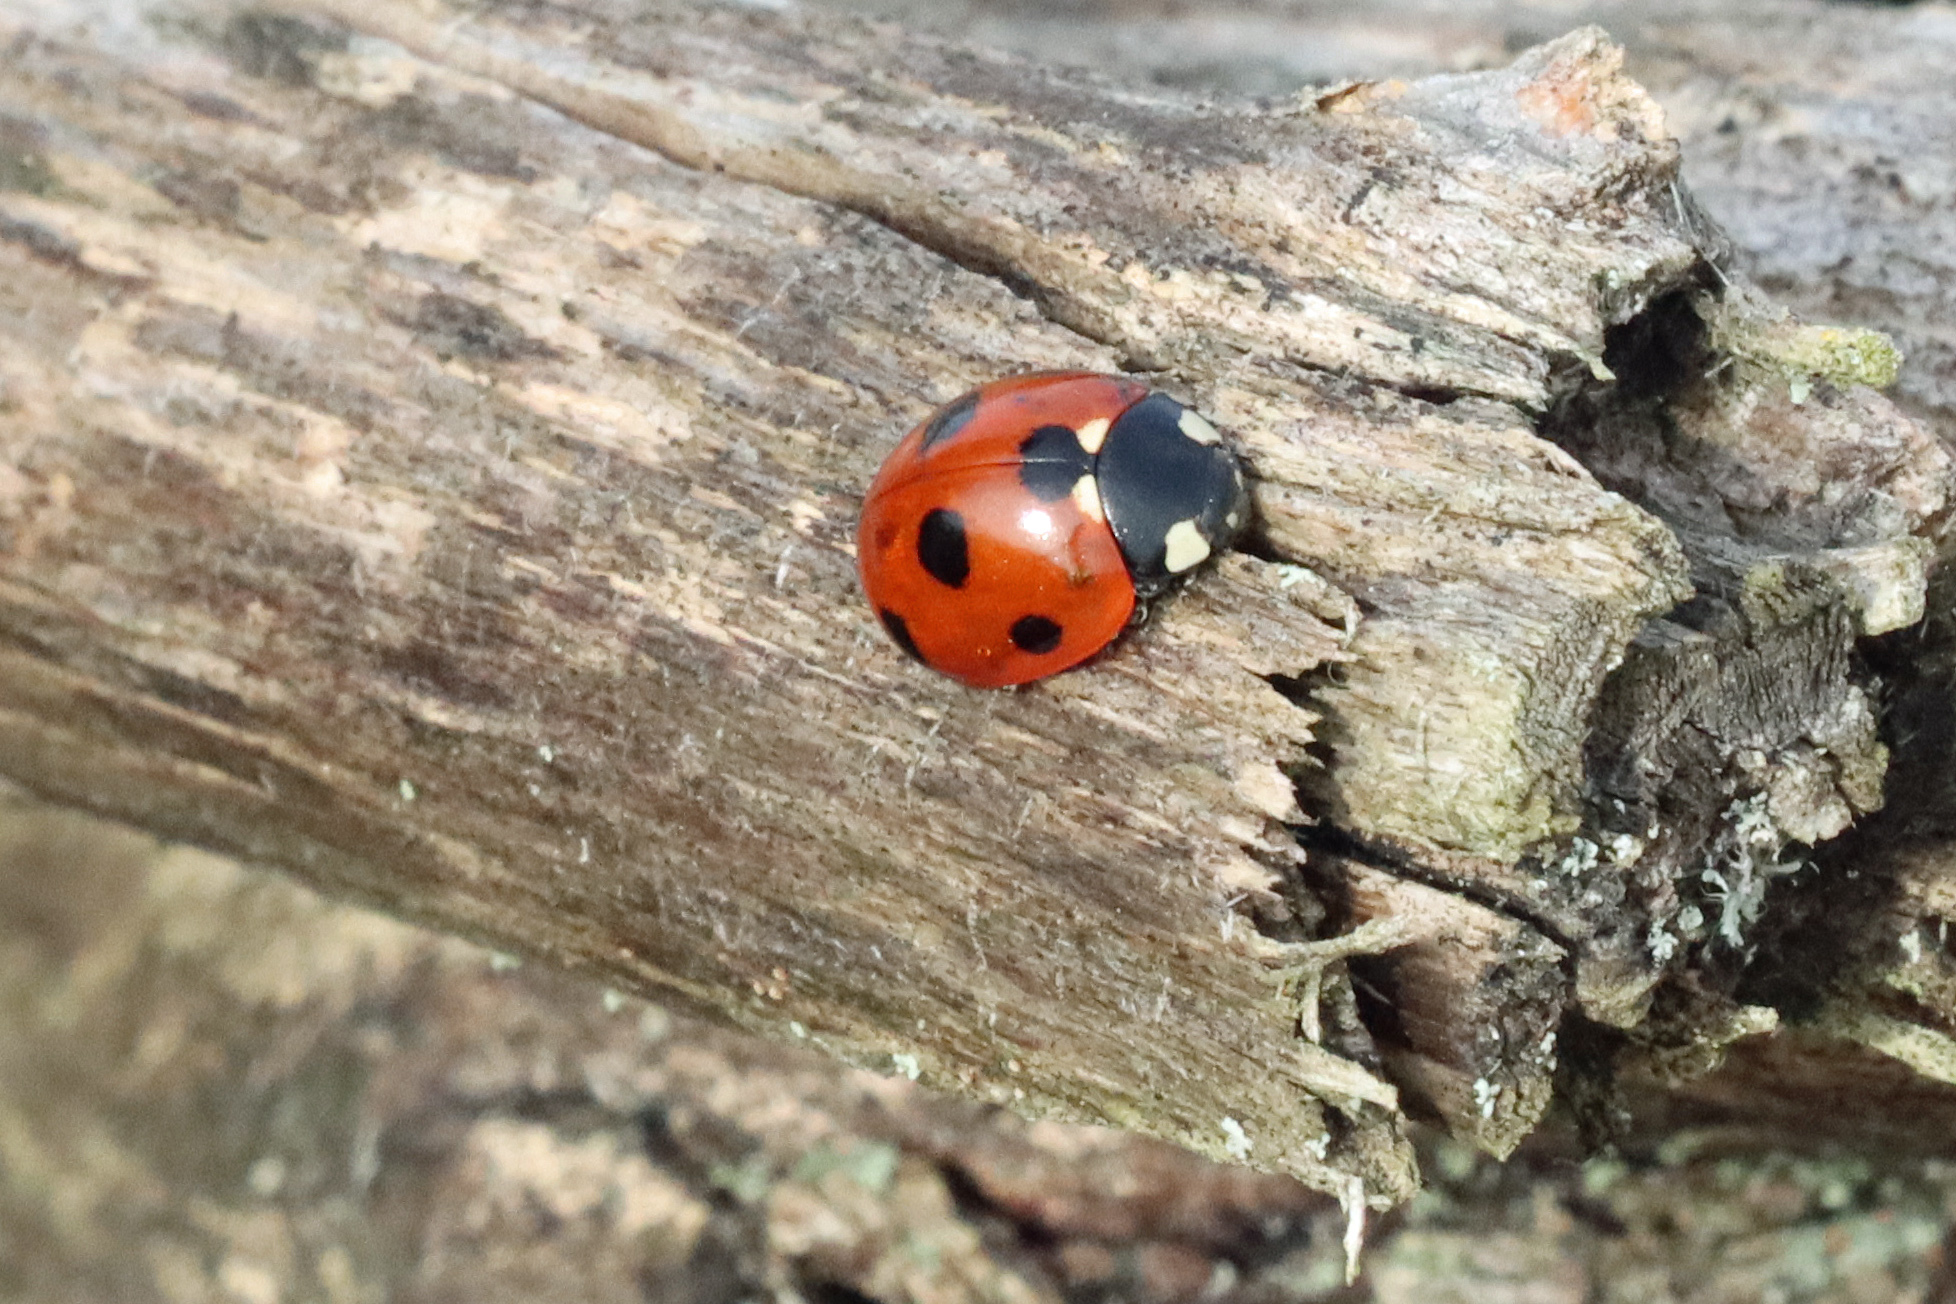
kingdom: Animalia
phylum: Arthropoda
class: Insecta
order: Coleoptera
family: Coccinellidae
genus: Coccinella
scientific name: Coccinella septempunctata
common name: Sevenspotted lady beetle
